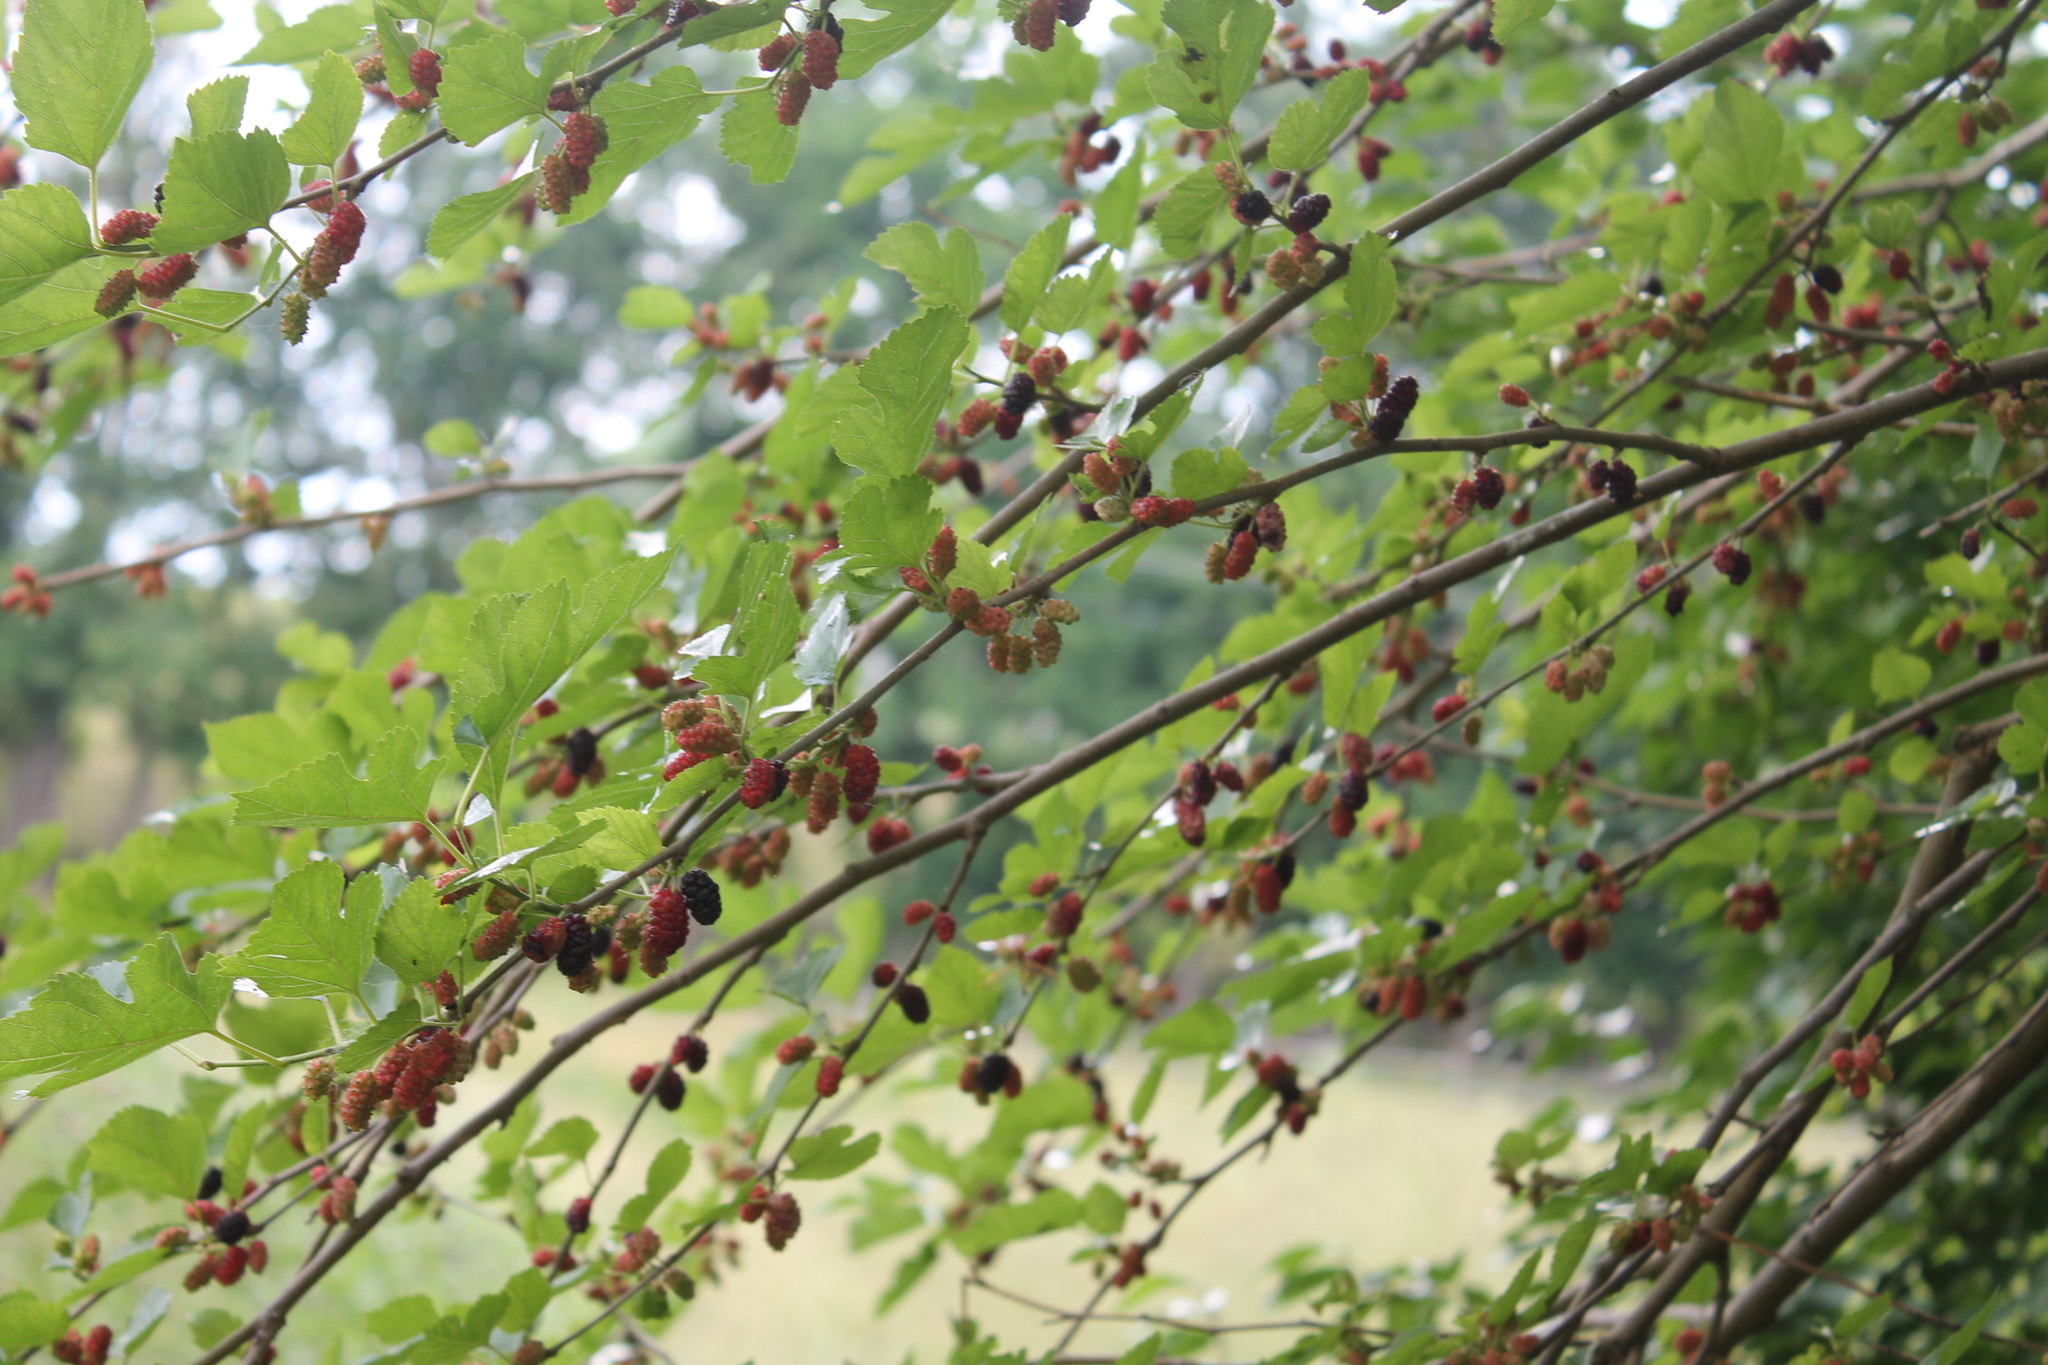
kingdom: Plantae
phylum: Tracheophyta
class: Magnoliopsida
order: Rosales
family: Moraceae
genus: Morus
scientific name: Morus alba
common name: White mulberry
